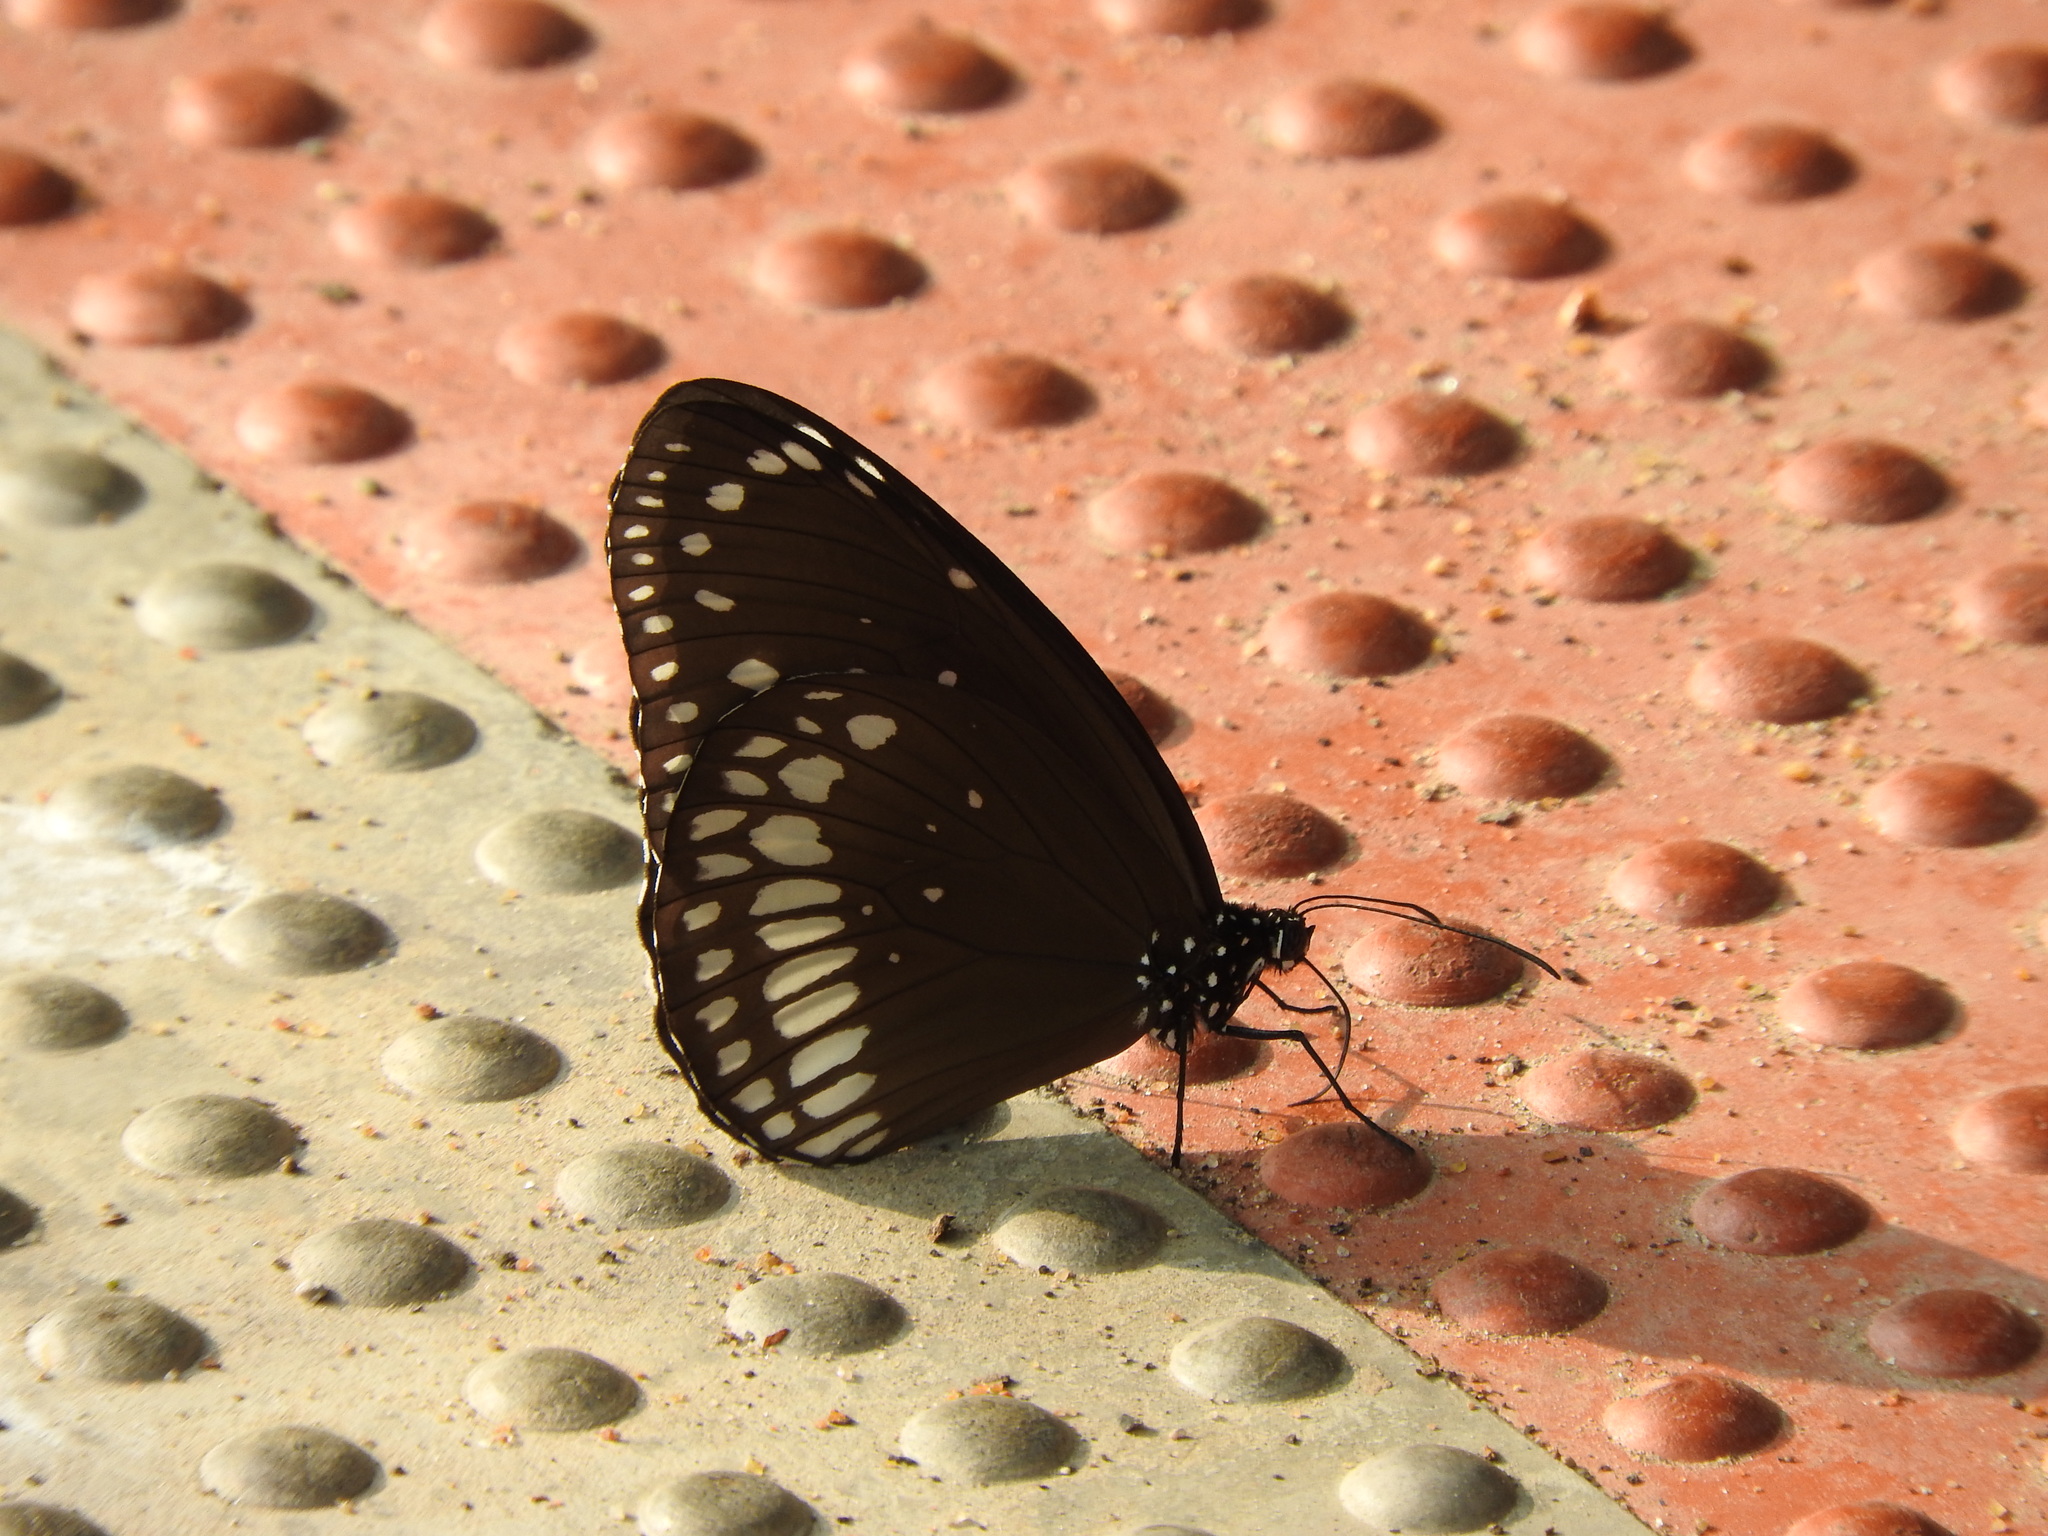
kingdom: Animalia
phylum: Arthropoda
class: Insecta
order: Lepidoptera
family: Nymphalidae
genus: Euploea
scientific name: Euploea core
